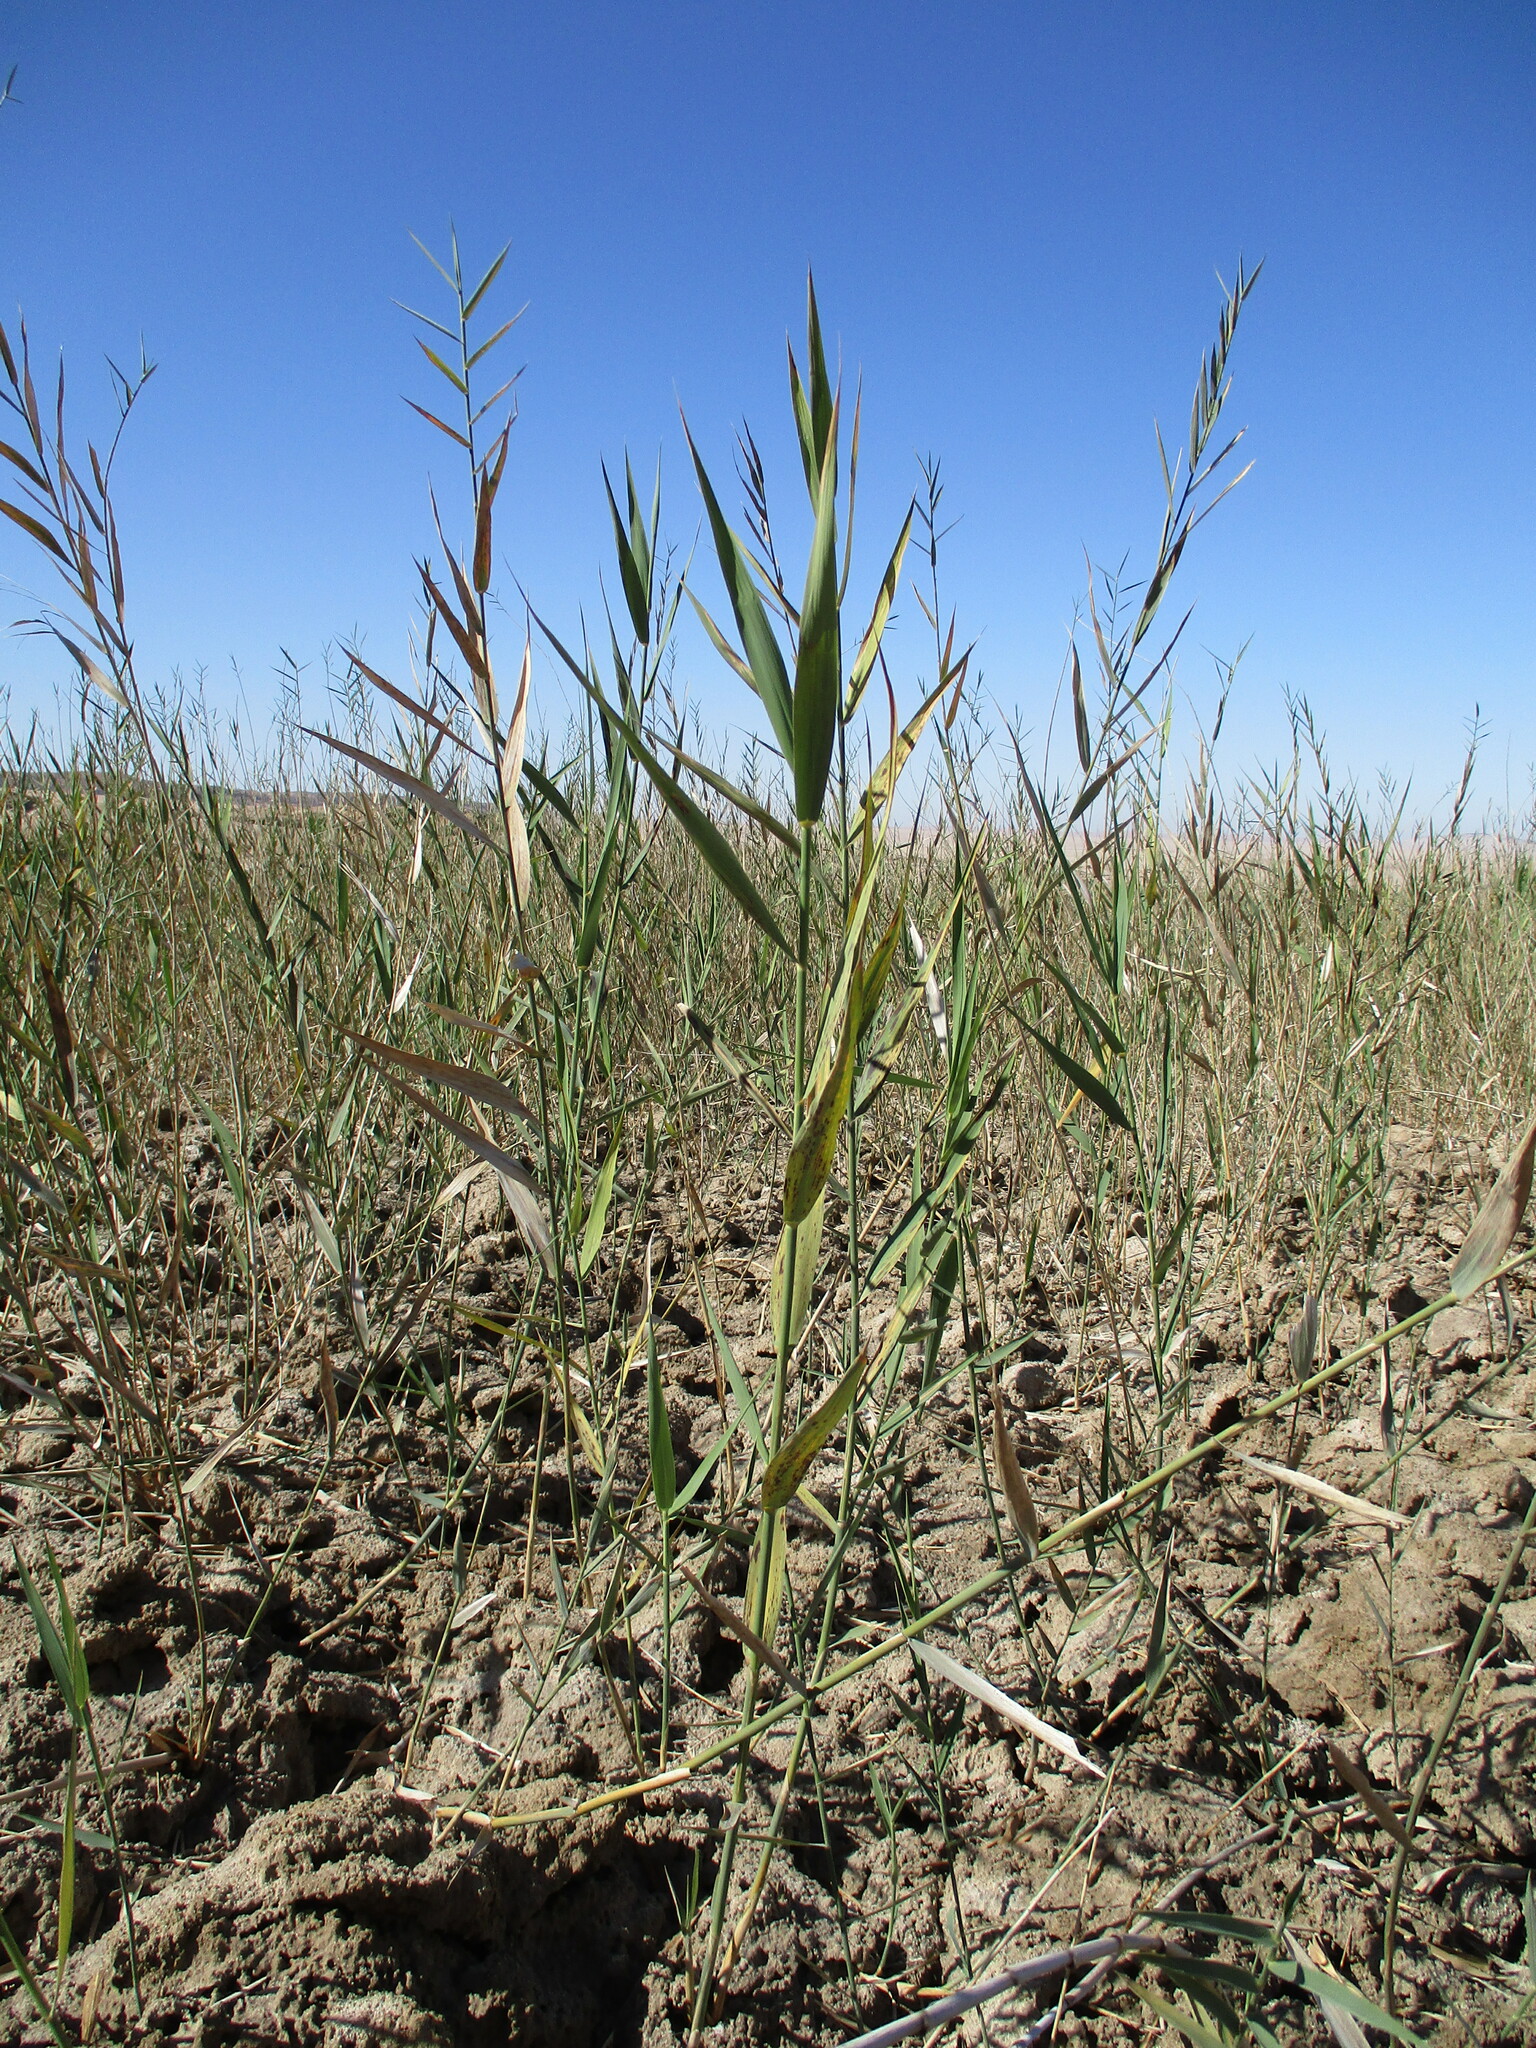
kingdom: Plantae
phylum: Tracheophyta
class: Liliopsida
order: Poales
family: Poaceae
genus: Phragmites
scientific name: Phragmites australis
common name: Common reed
